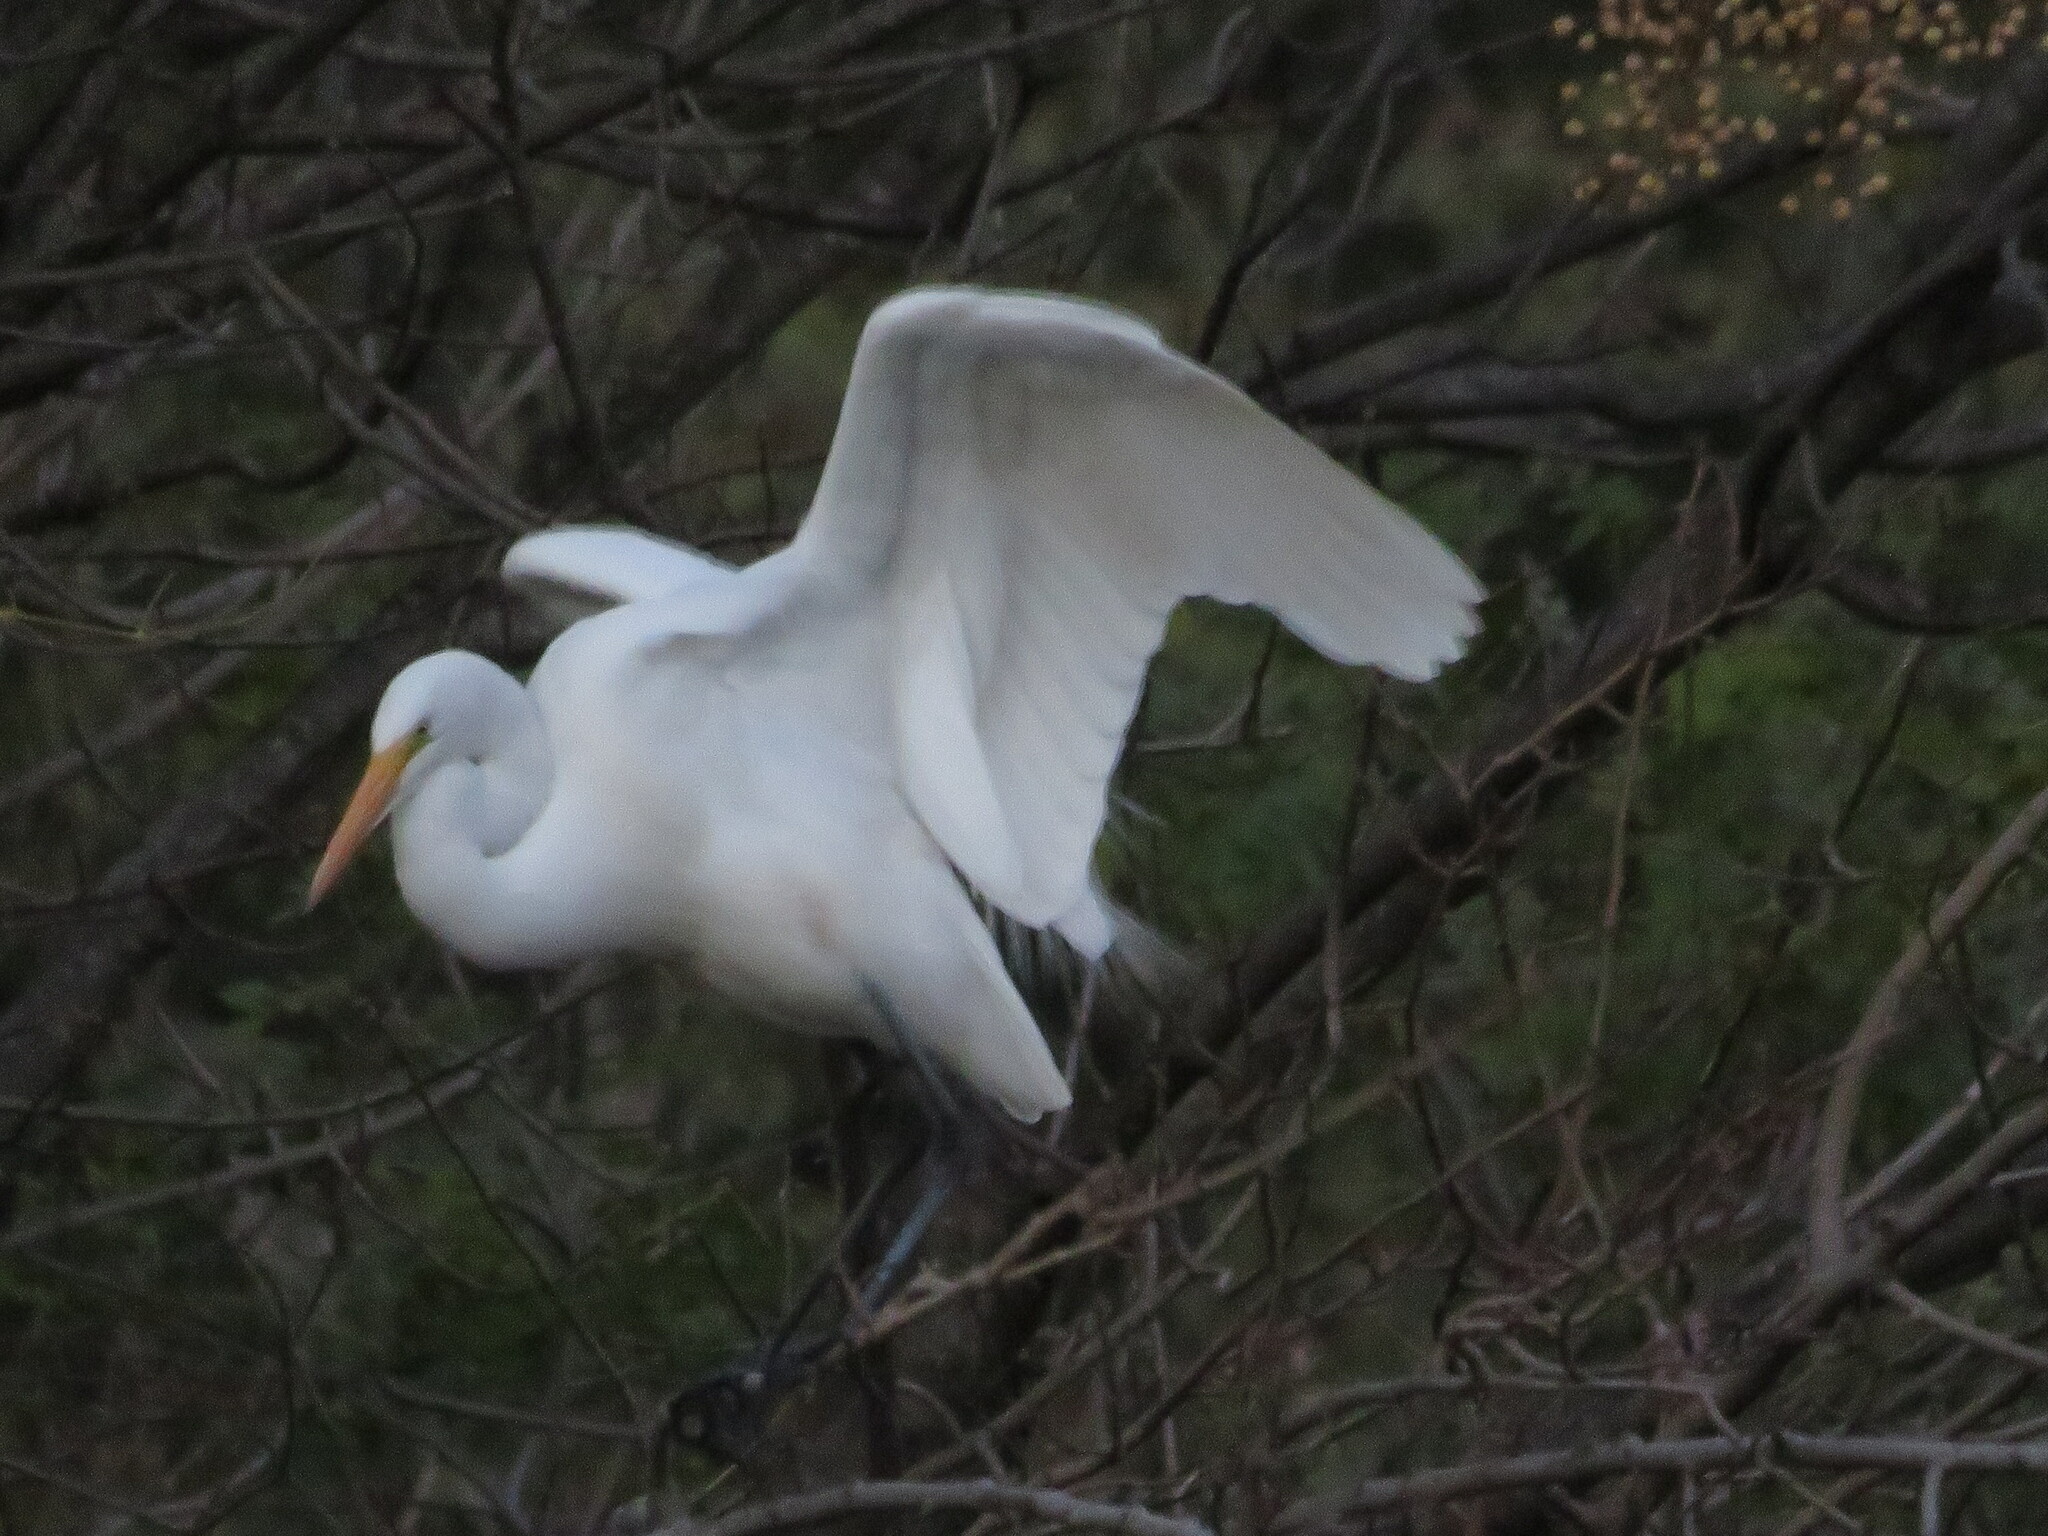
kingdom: Animalia
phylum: Chordata
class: Aves
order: Pelecaniformes
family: Ardeidae
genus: Ardea
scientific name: Ardea alba
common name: Great egret
